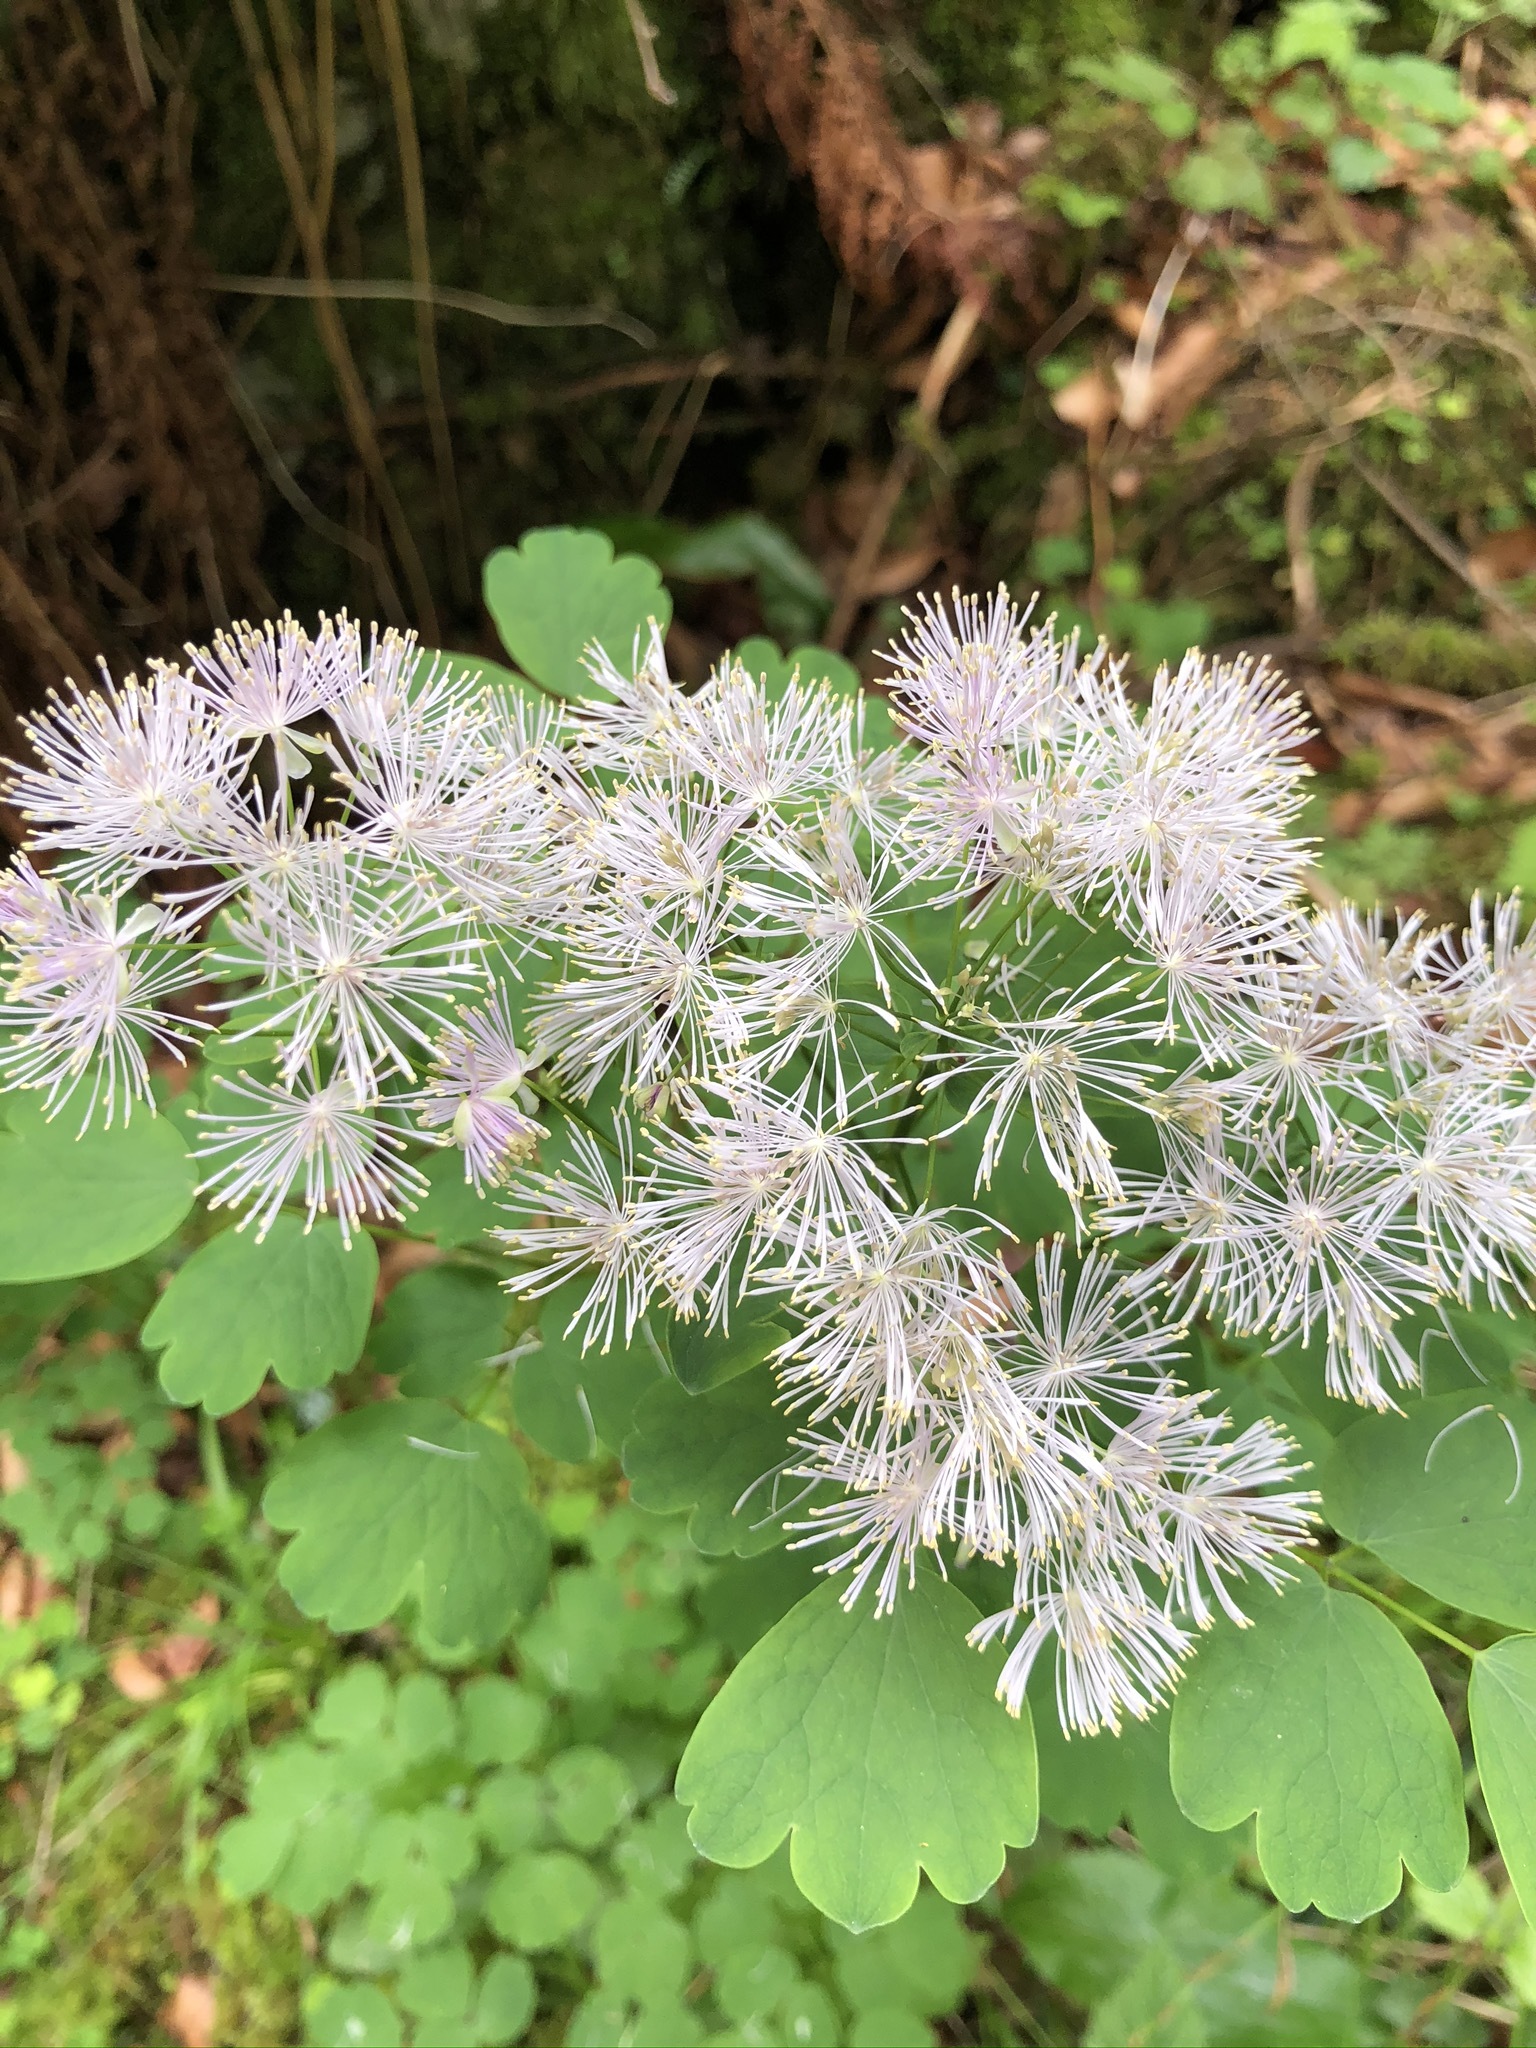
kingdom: Plantae
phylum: Tracheophyta
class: Magnoliopsida
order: Ranunculales
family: Ranunculaceae
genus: Thalictrum
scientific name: Thalictrum aquilegiifolium
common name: French meadow-rue
